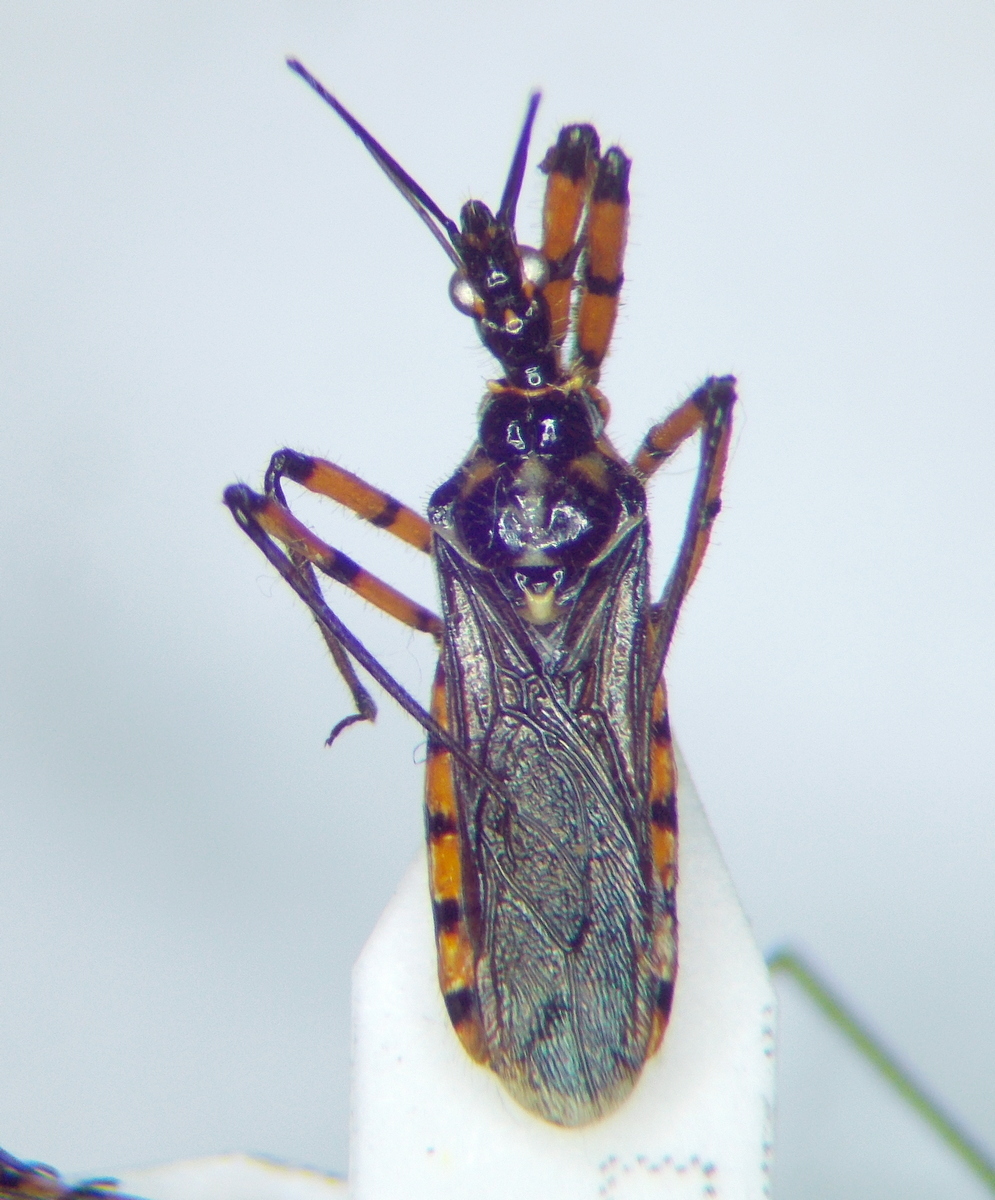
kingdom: Animalia
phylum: Arthropoda
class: Insecta
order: Hemiptera
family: Reduviidae
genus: Sphedanolestes
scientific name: Sphedanolestes pulchellus
